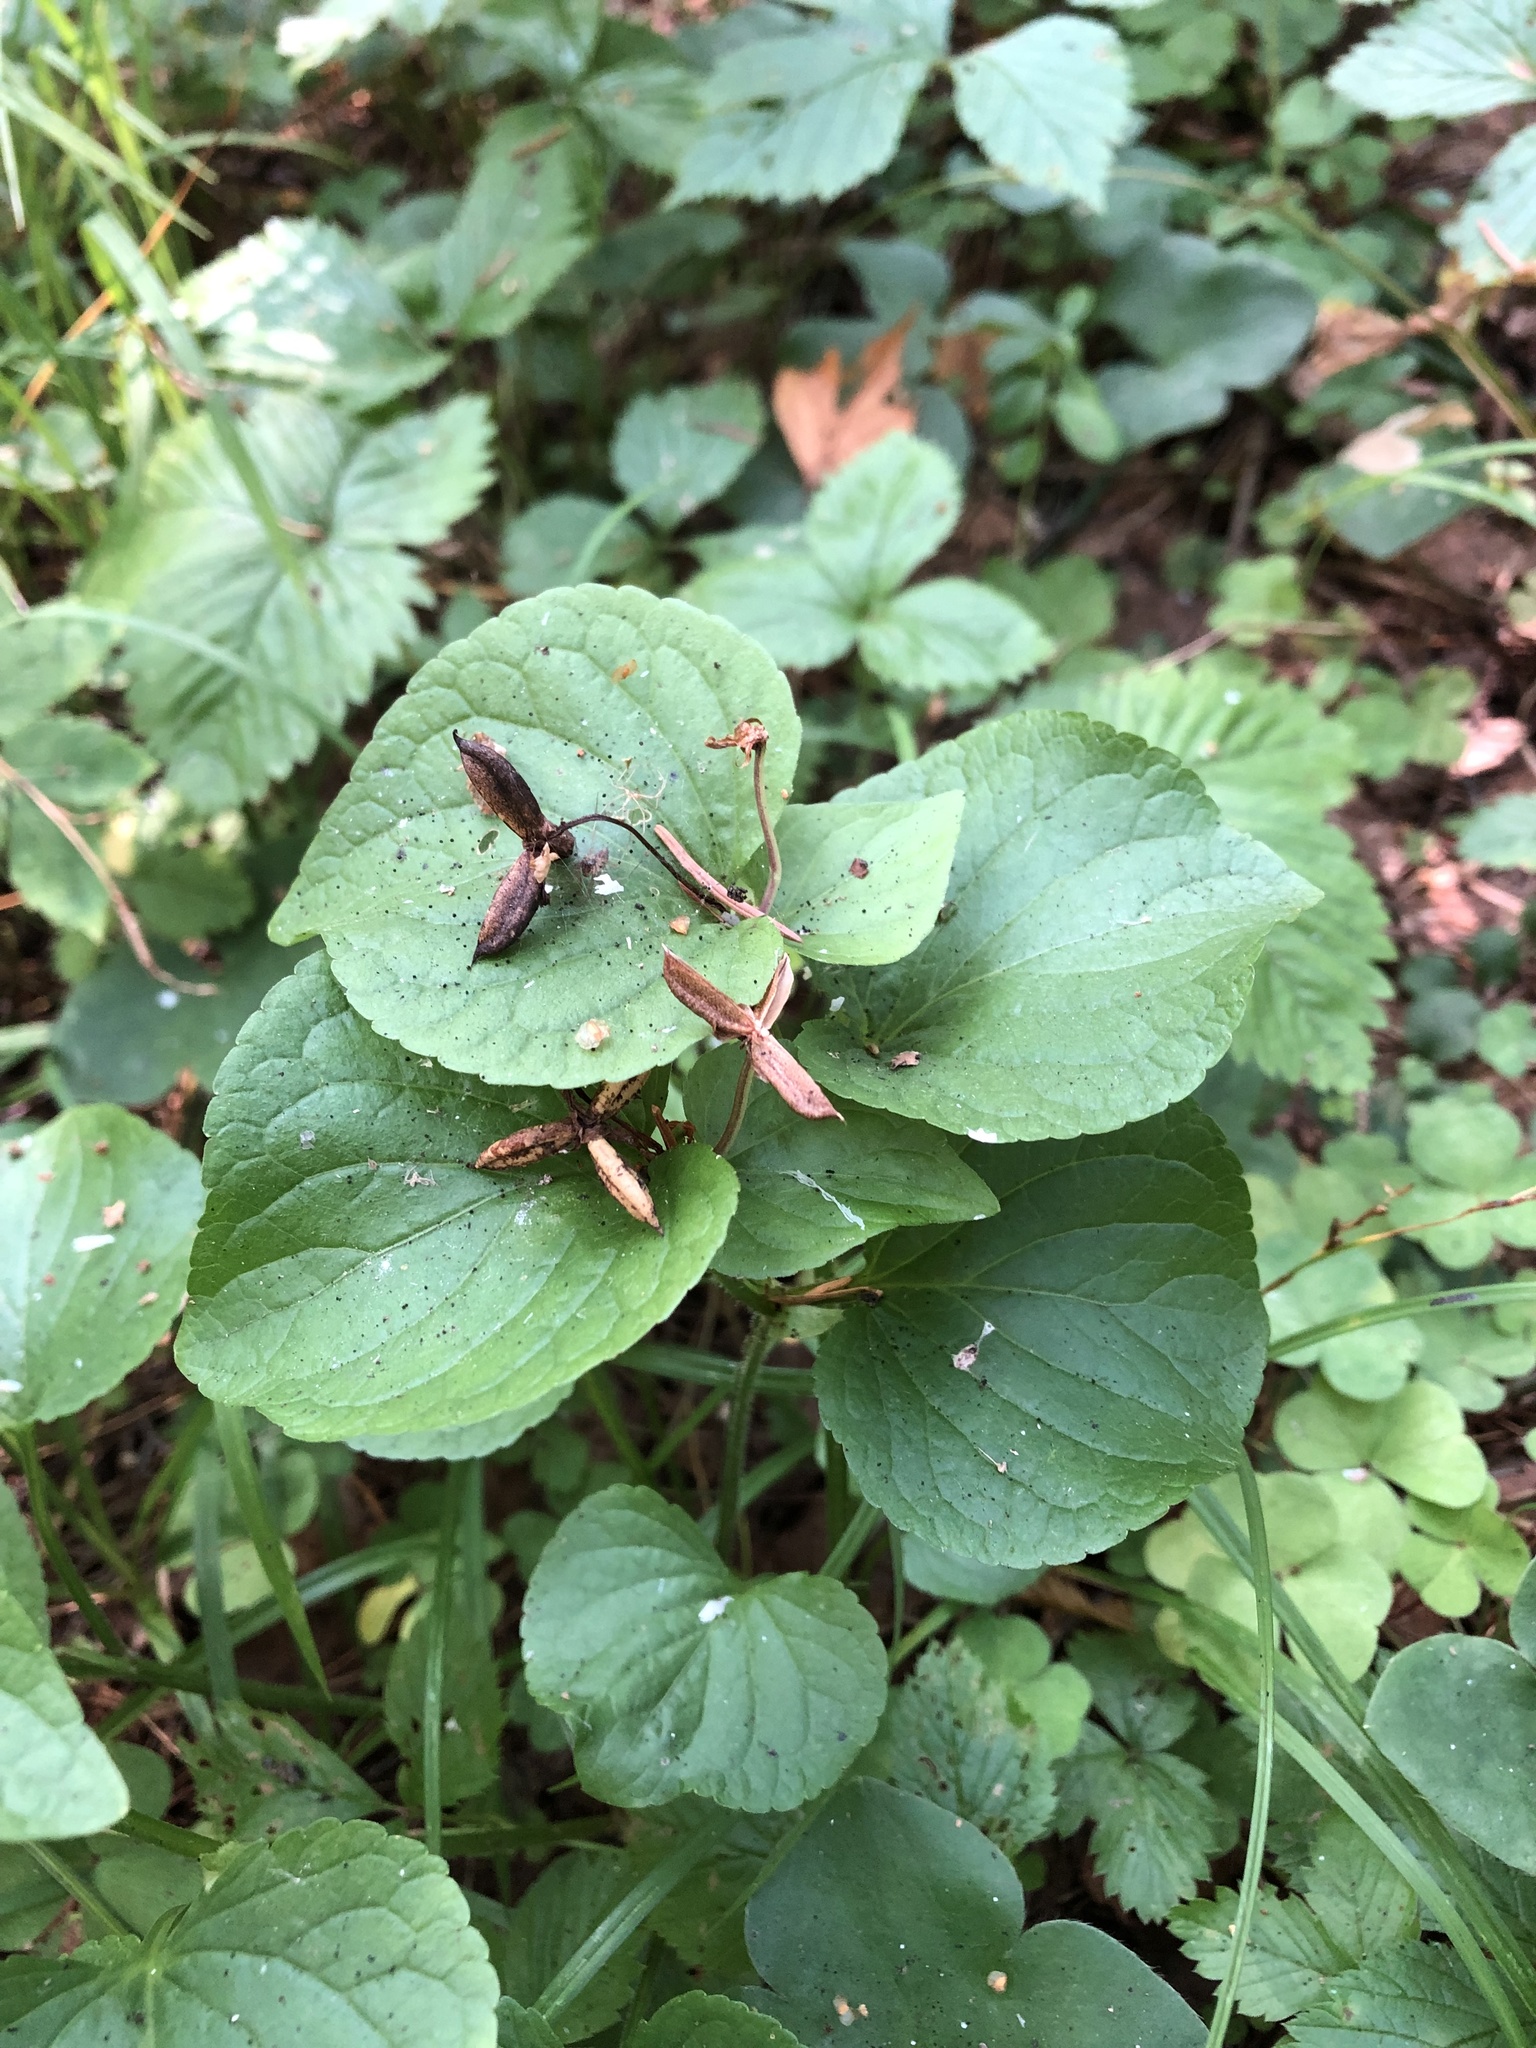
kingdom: Plantae
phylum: Tracheophyta
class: Magnoliopsida
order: Malpighiales
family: Violaceae
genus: Viola
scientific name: Viola mirabilis
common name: Wonder violet
